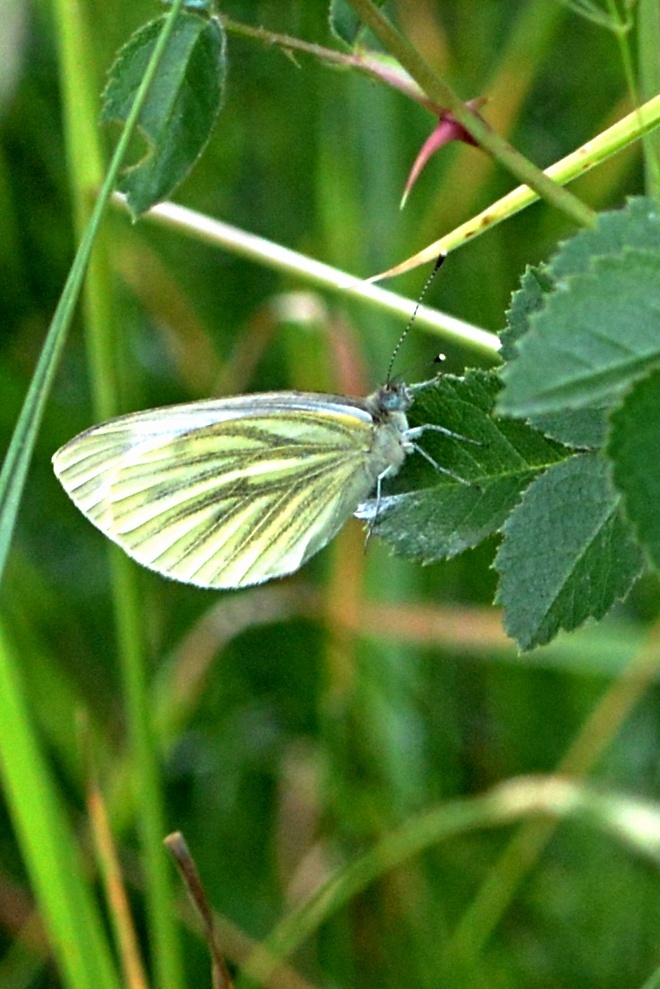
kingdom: Animalia
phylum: Arthropoda
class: Insecta
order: Lepidoptera
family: Pieridae
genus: Pieris
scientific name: Pieris napi
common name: Green-veined white
